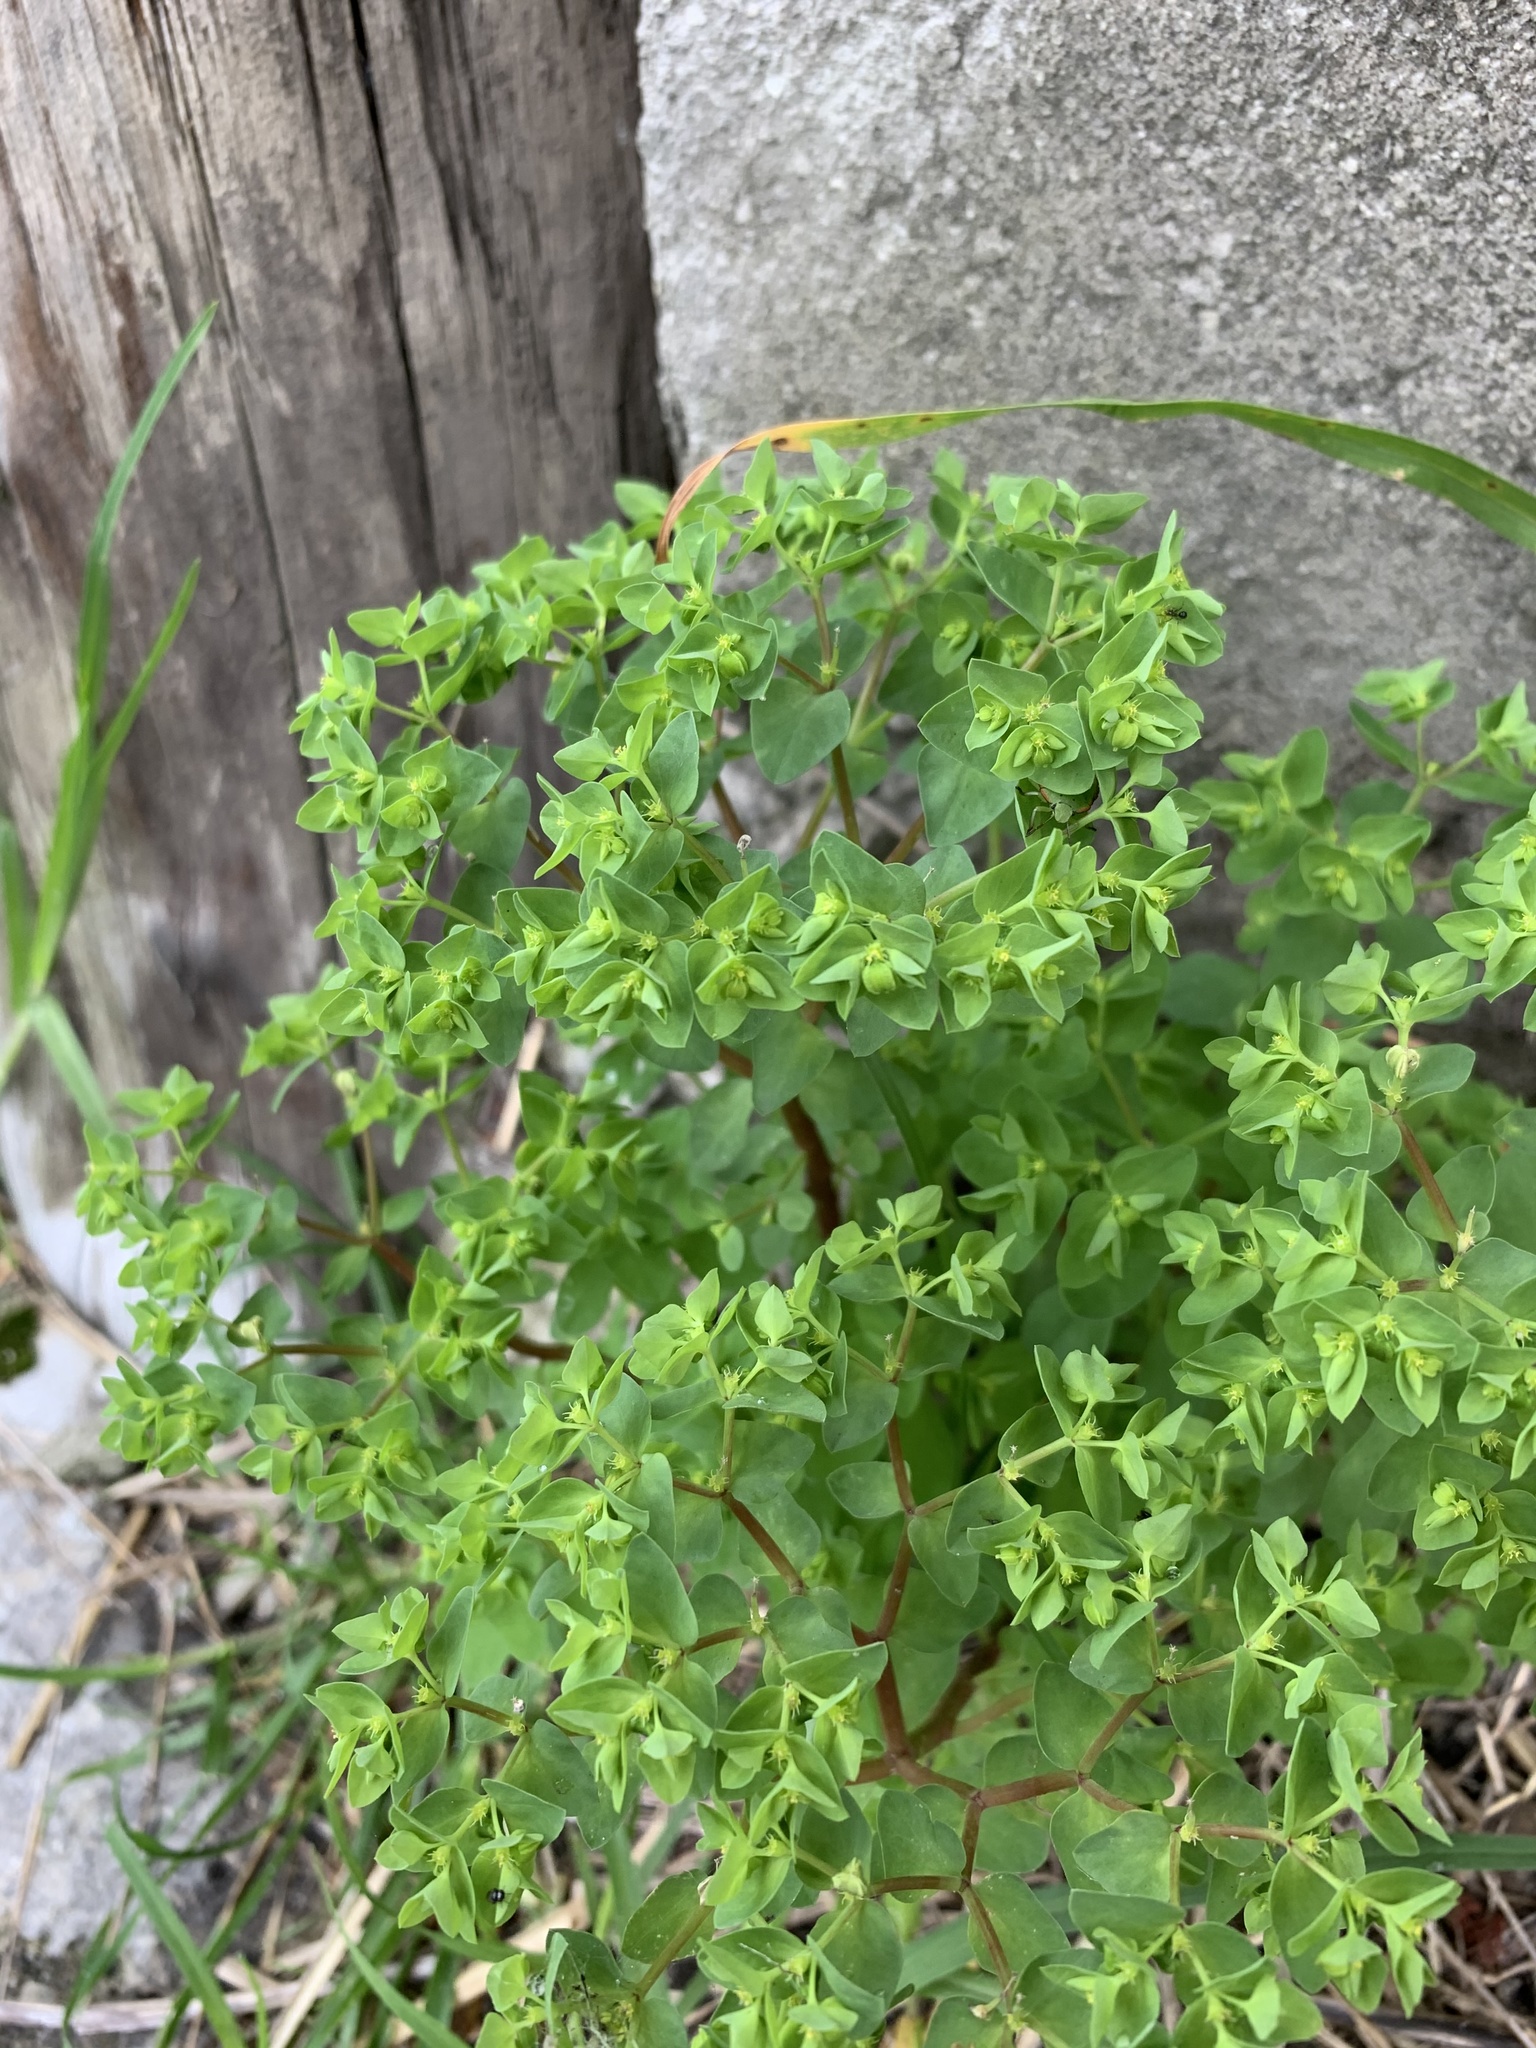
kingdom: Plantae
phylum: Tracheophyta
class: Magnoliopsida
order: Malpighiales
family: Euphorbiaceae
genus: Euphorbia
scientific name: Euphorbia peplus
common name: Petty spurge
